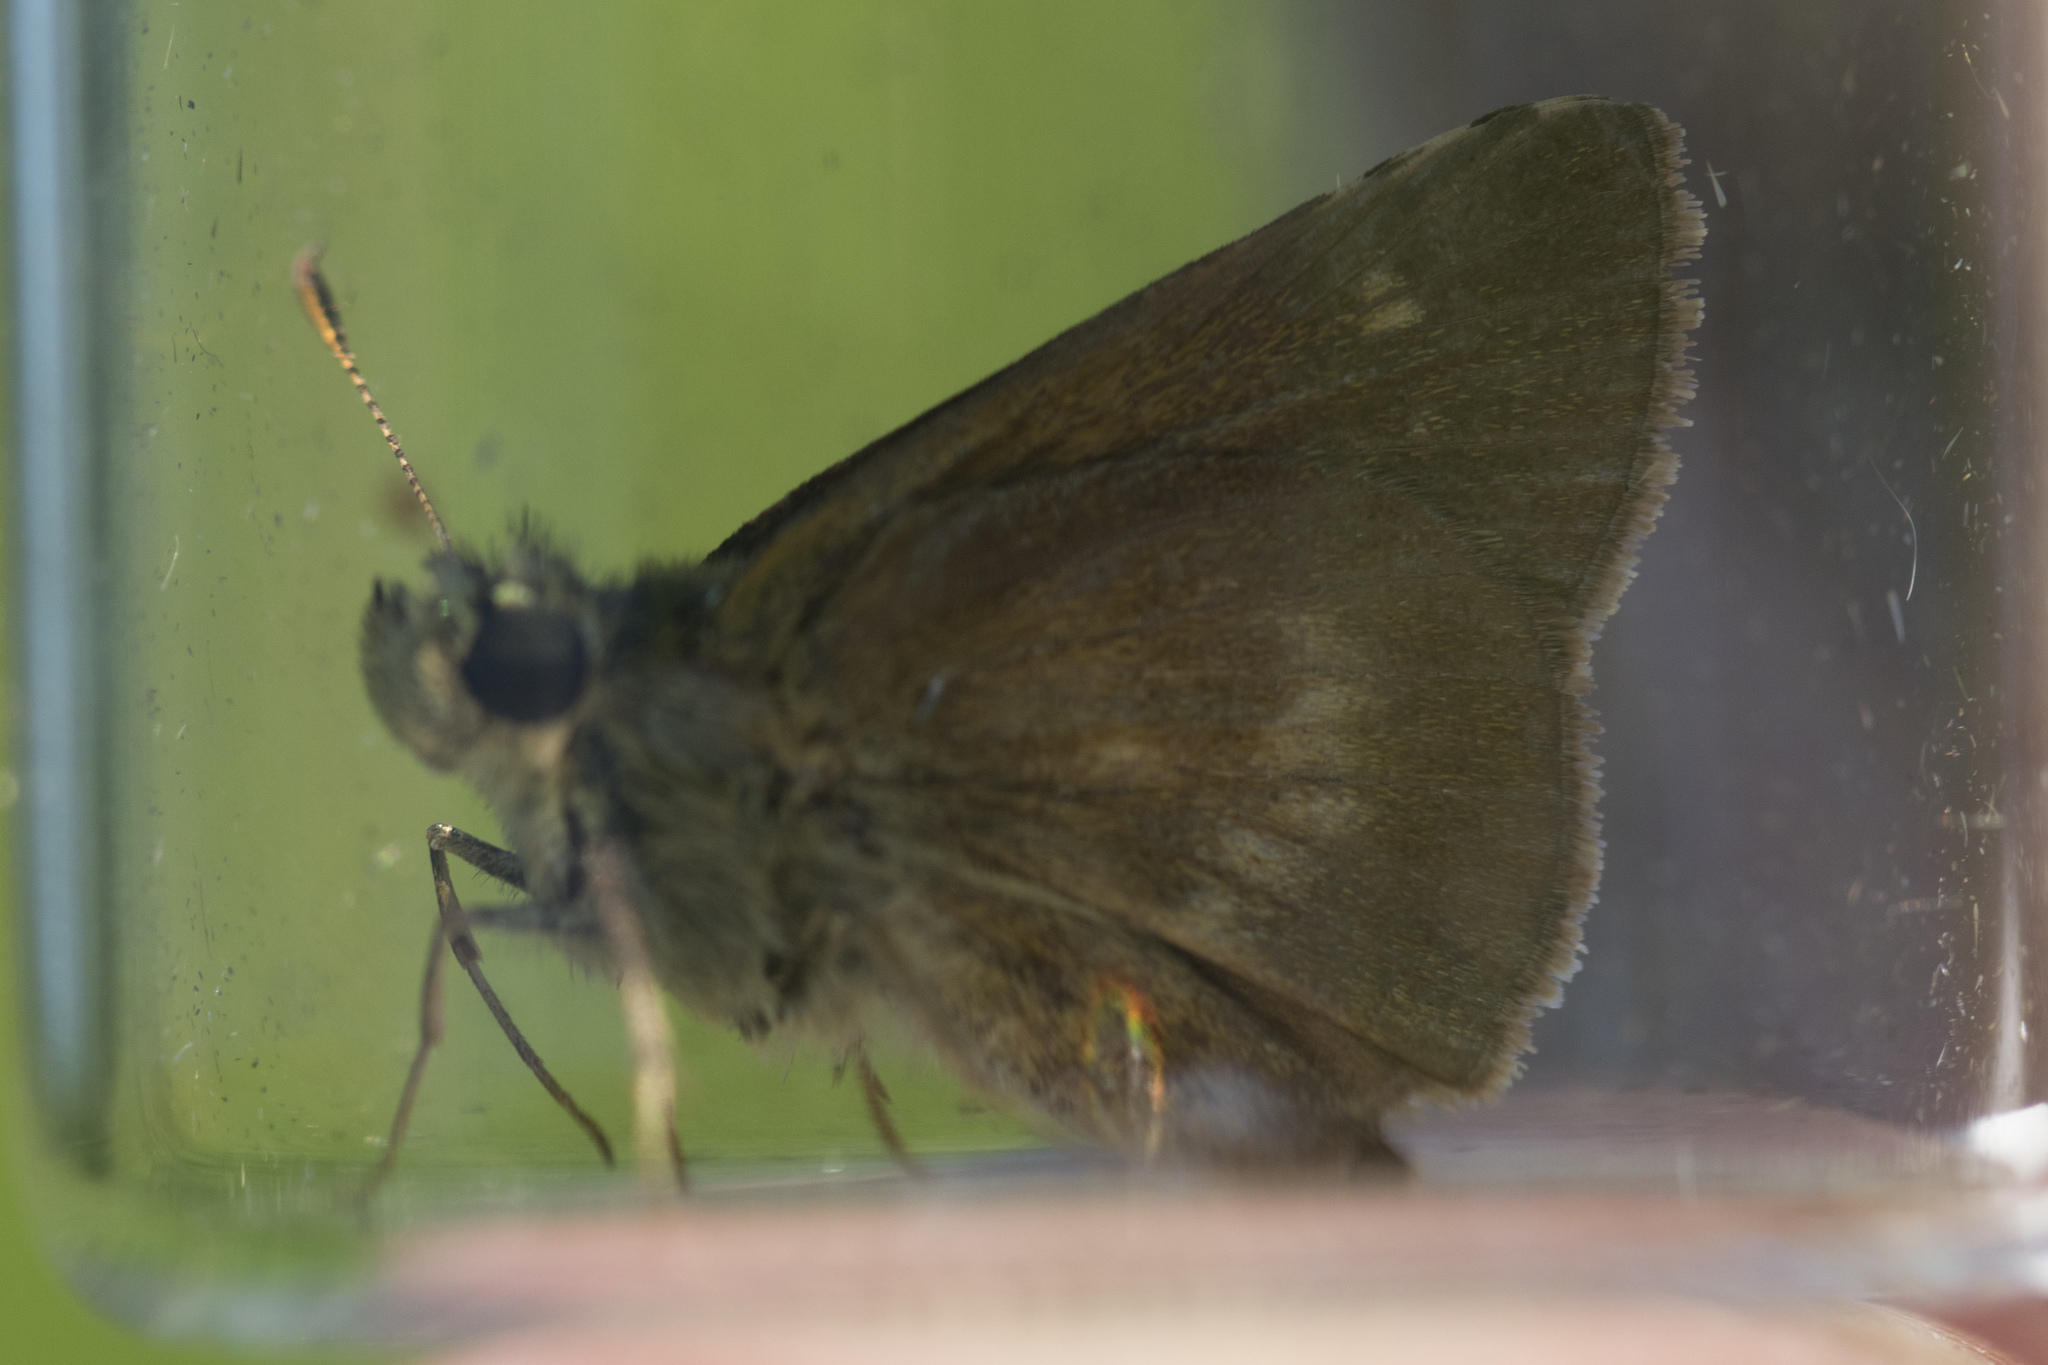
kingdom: Animalia
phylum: Arthropoda
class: Insecta
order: Lepidoptera
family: Hesperiidae
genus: Polites
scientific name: Polites egeremet
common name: Northern broken-dash
